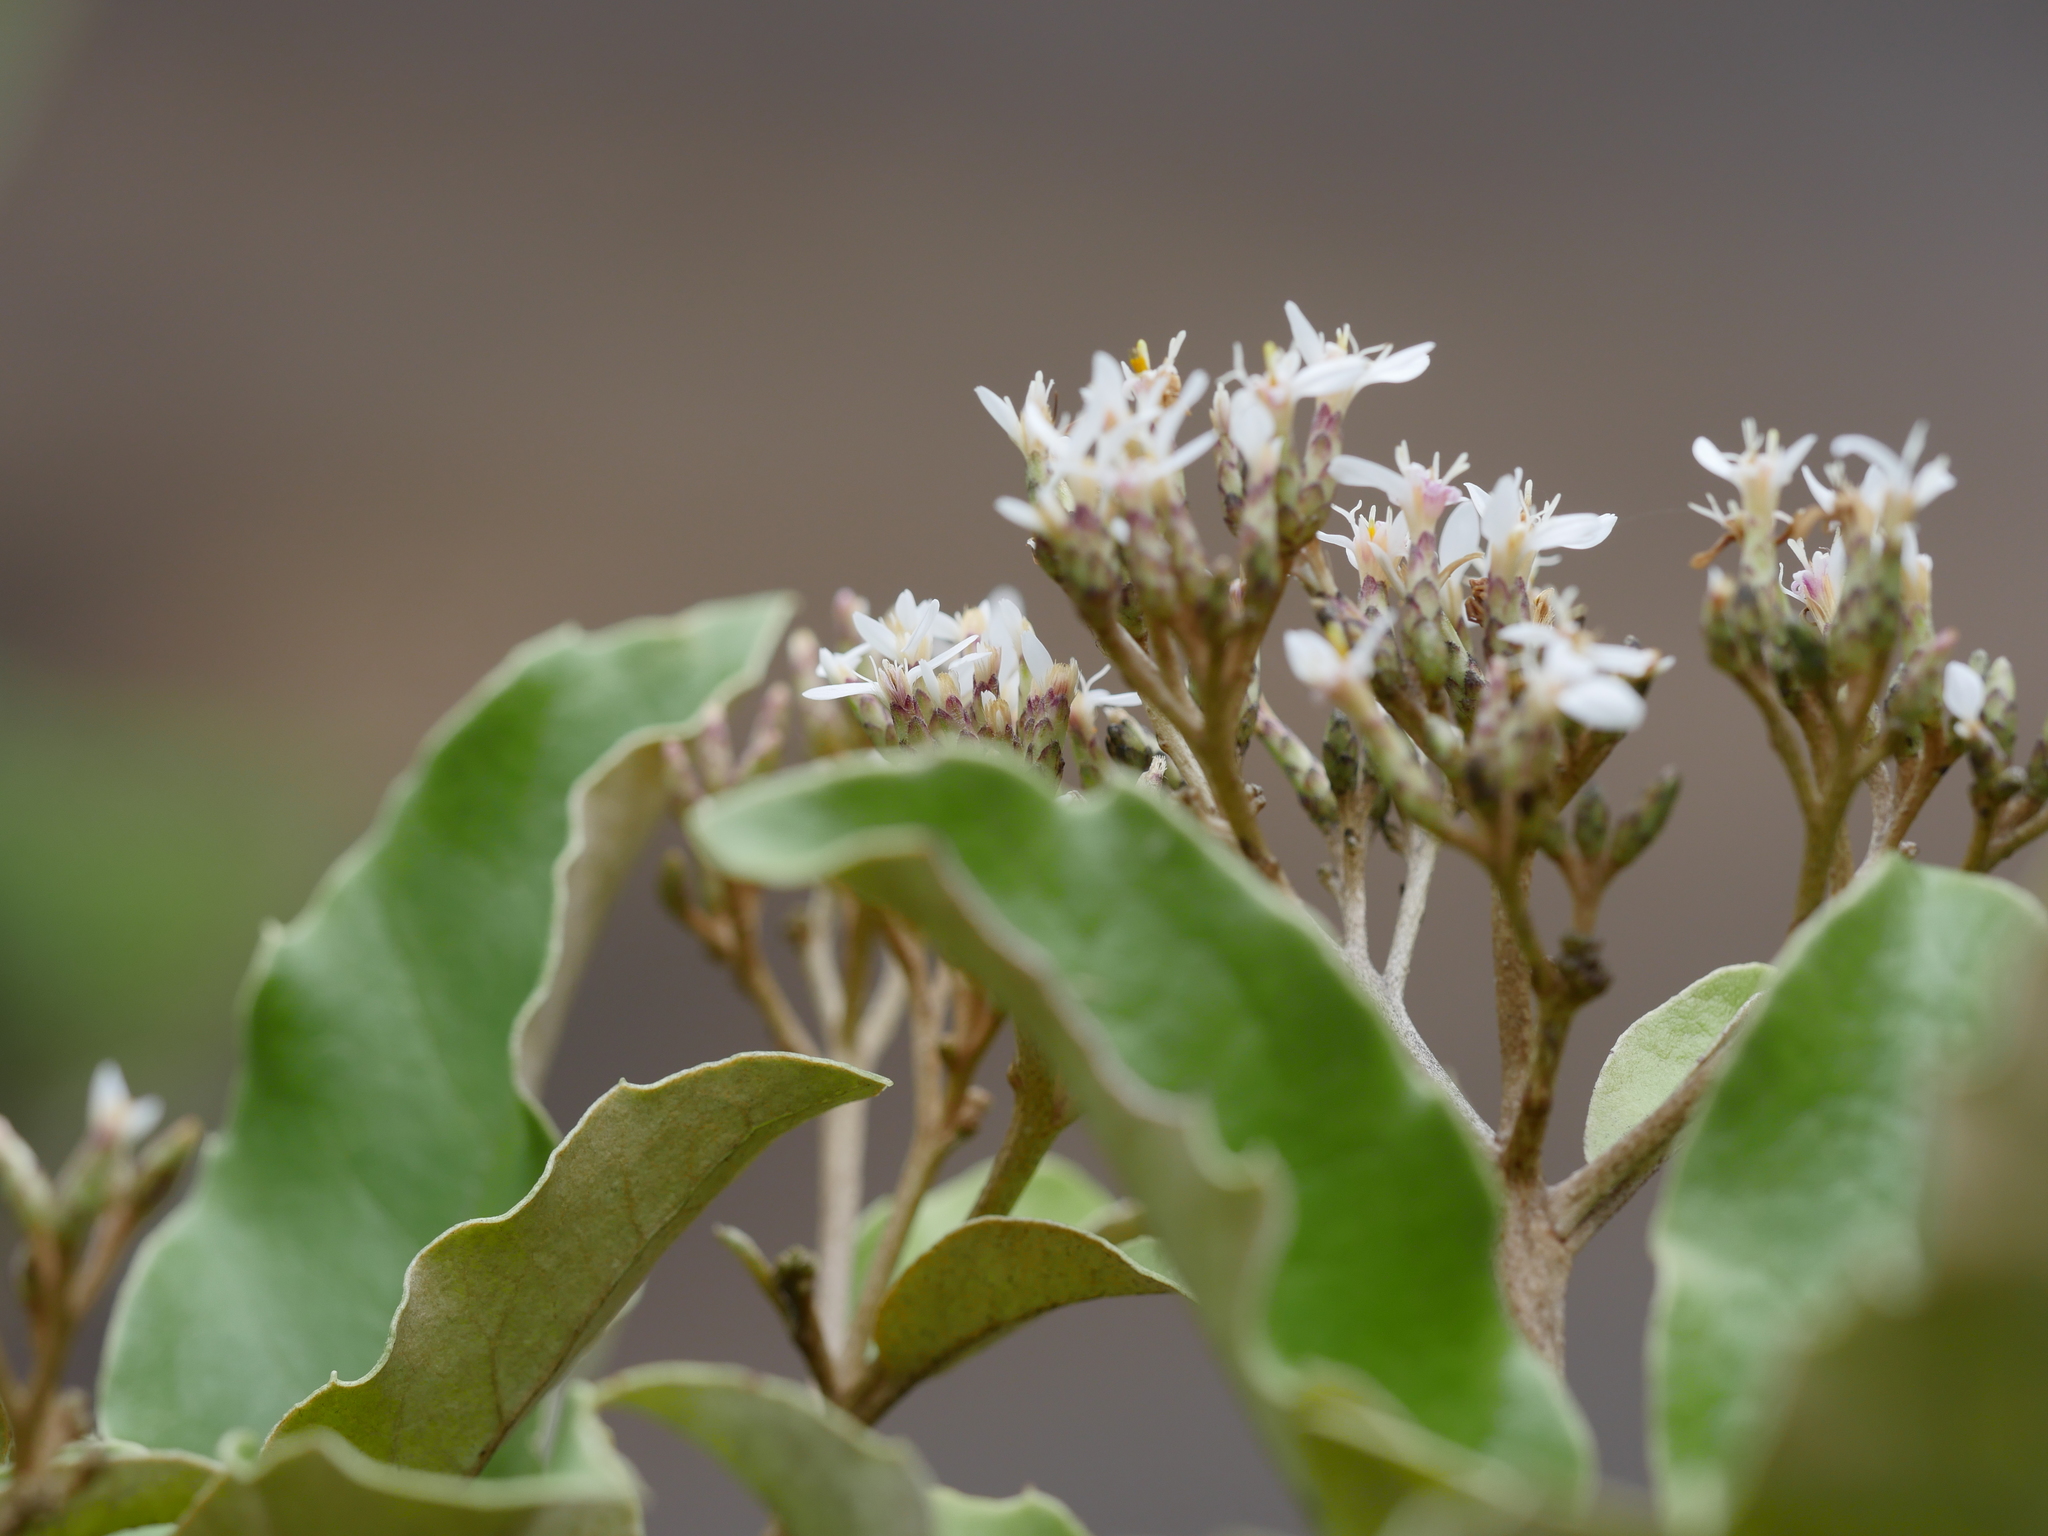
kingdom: Plantae
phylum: Tracheophyta
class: Magnoliopsida
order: Asterales
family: Asteraceae
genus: Olearia
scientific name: Olearia furfuracea
